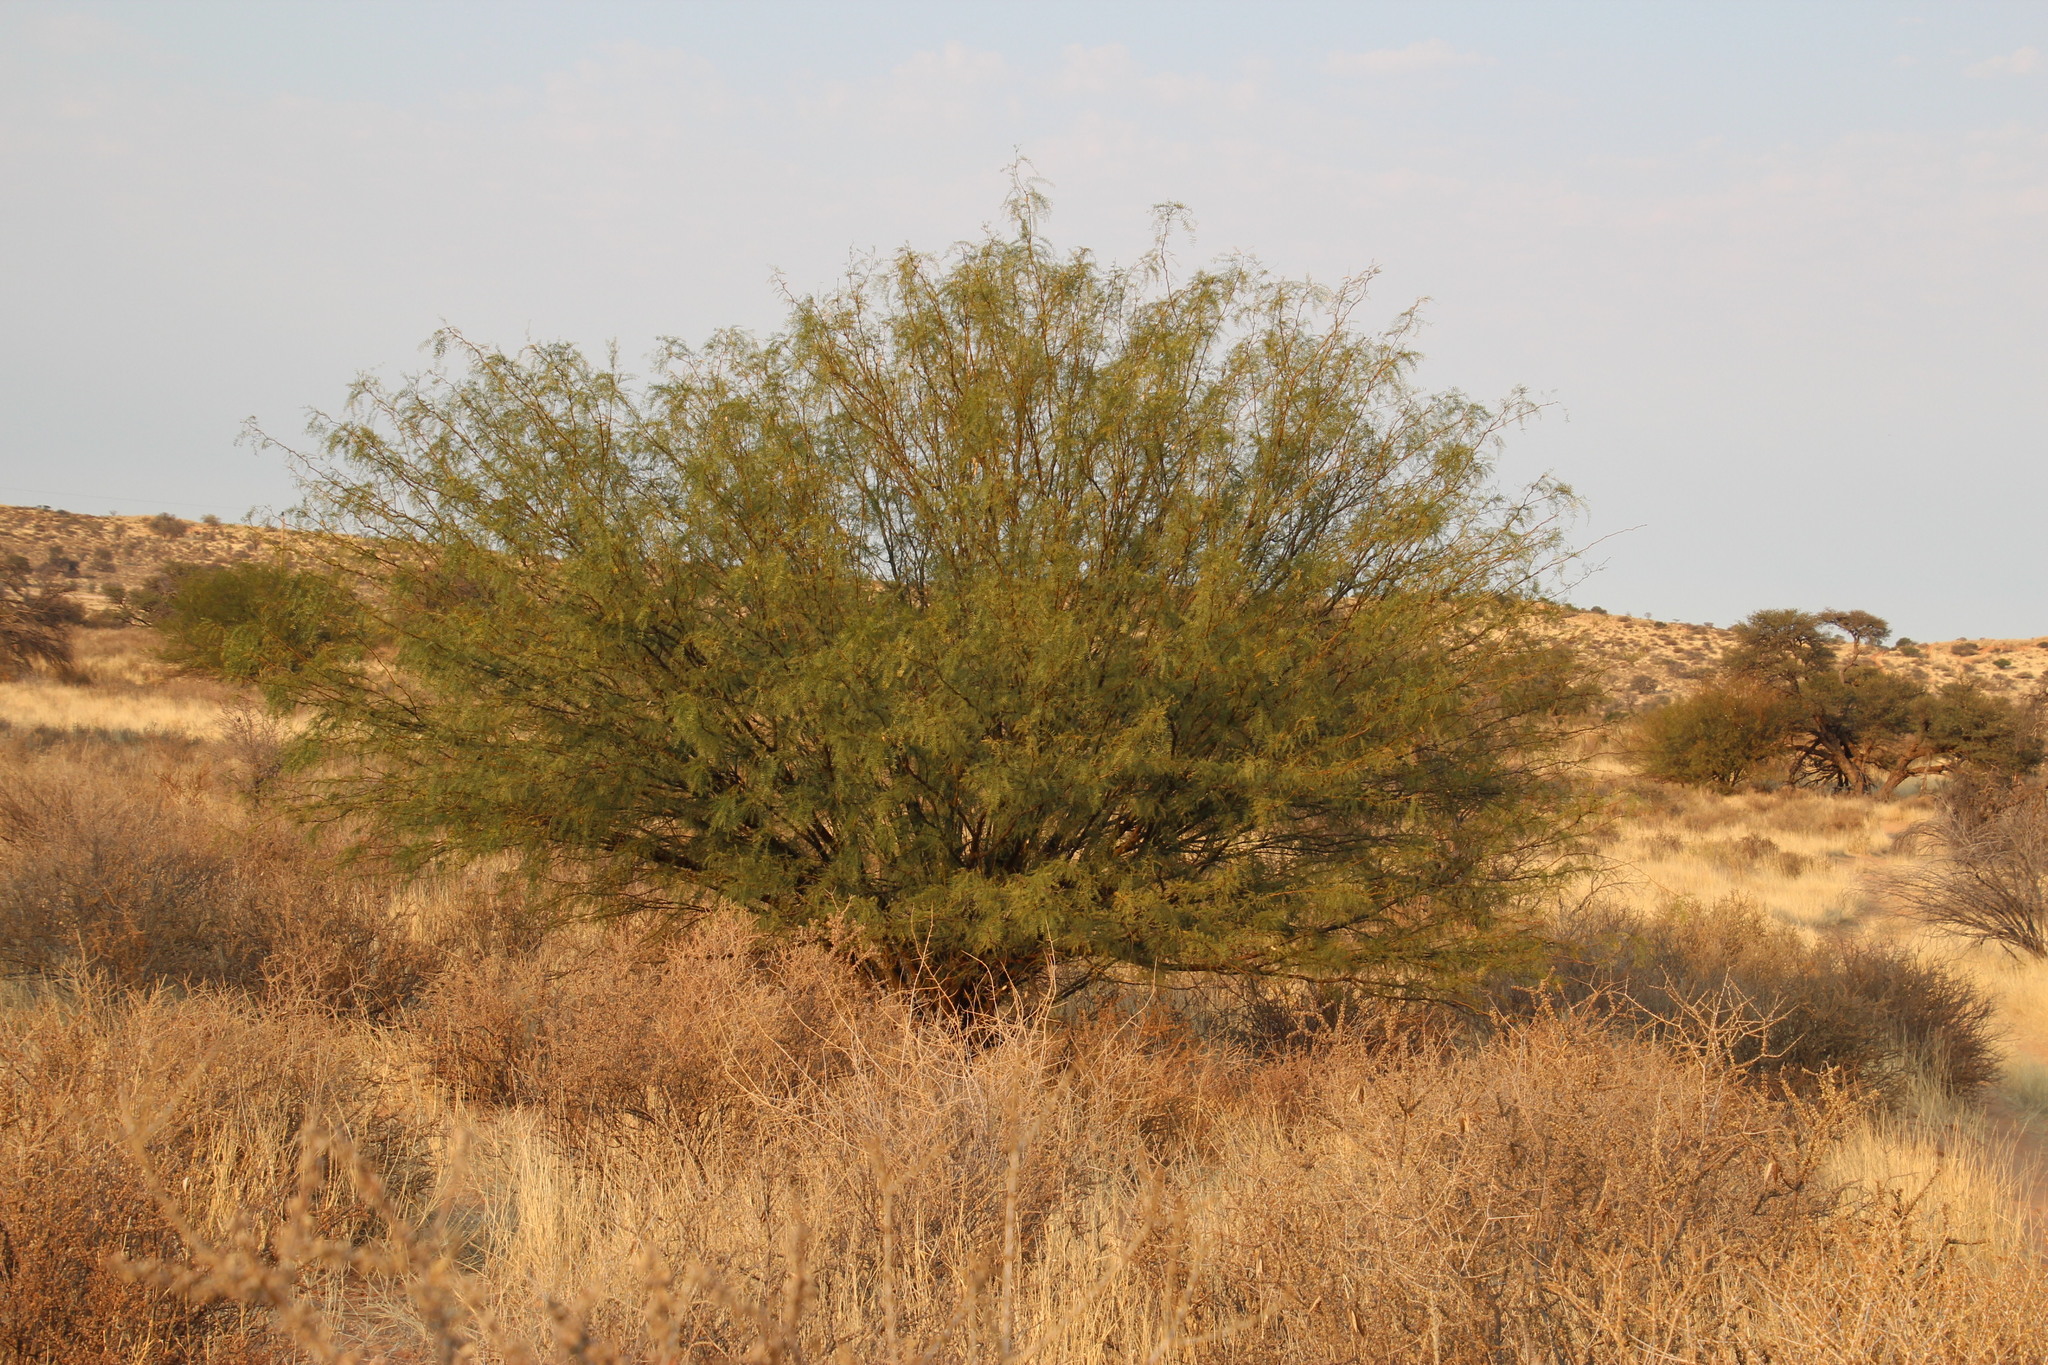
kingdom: Plantae
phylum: Tracheophyta
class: Magnoliopsida
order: Fabales
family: Fabaceae
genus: Prosopis
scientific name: Prosopis glandulosa
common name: Honey mesquite
